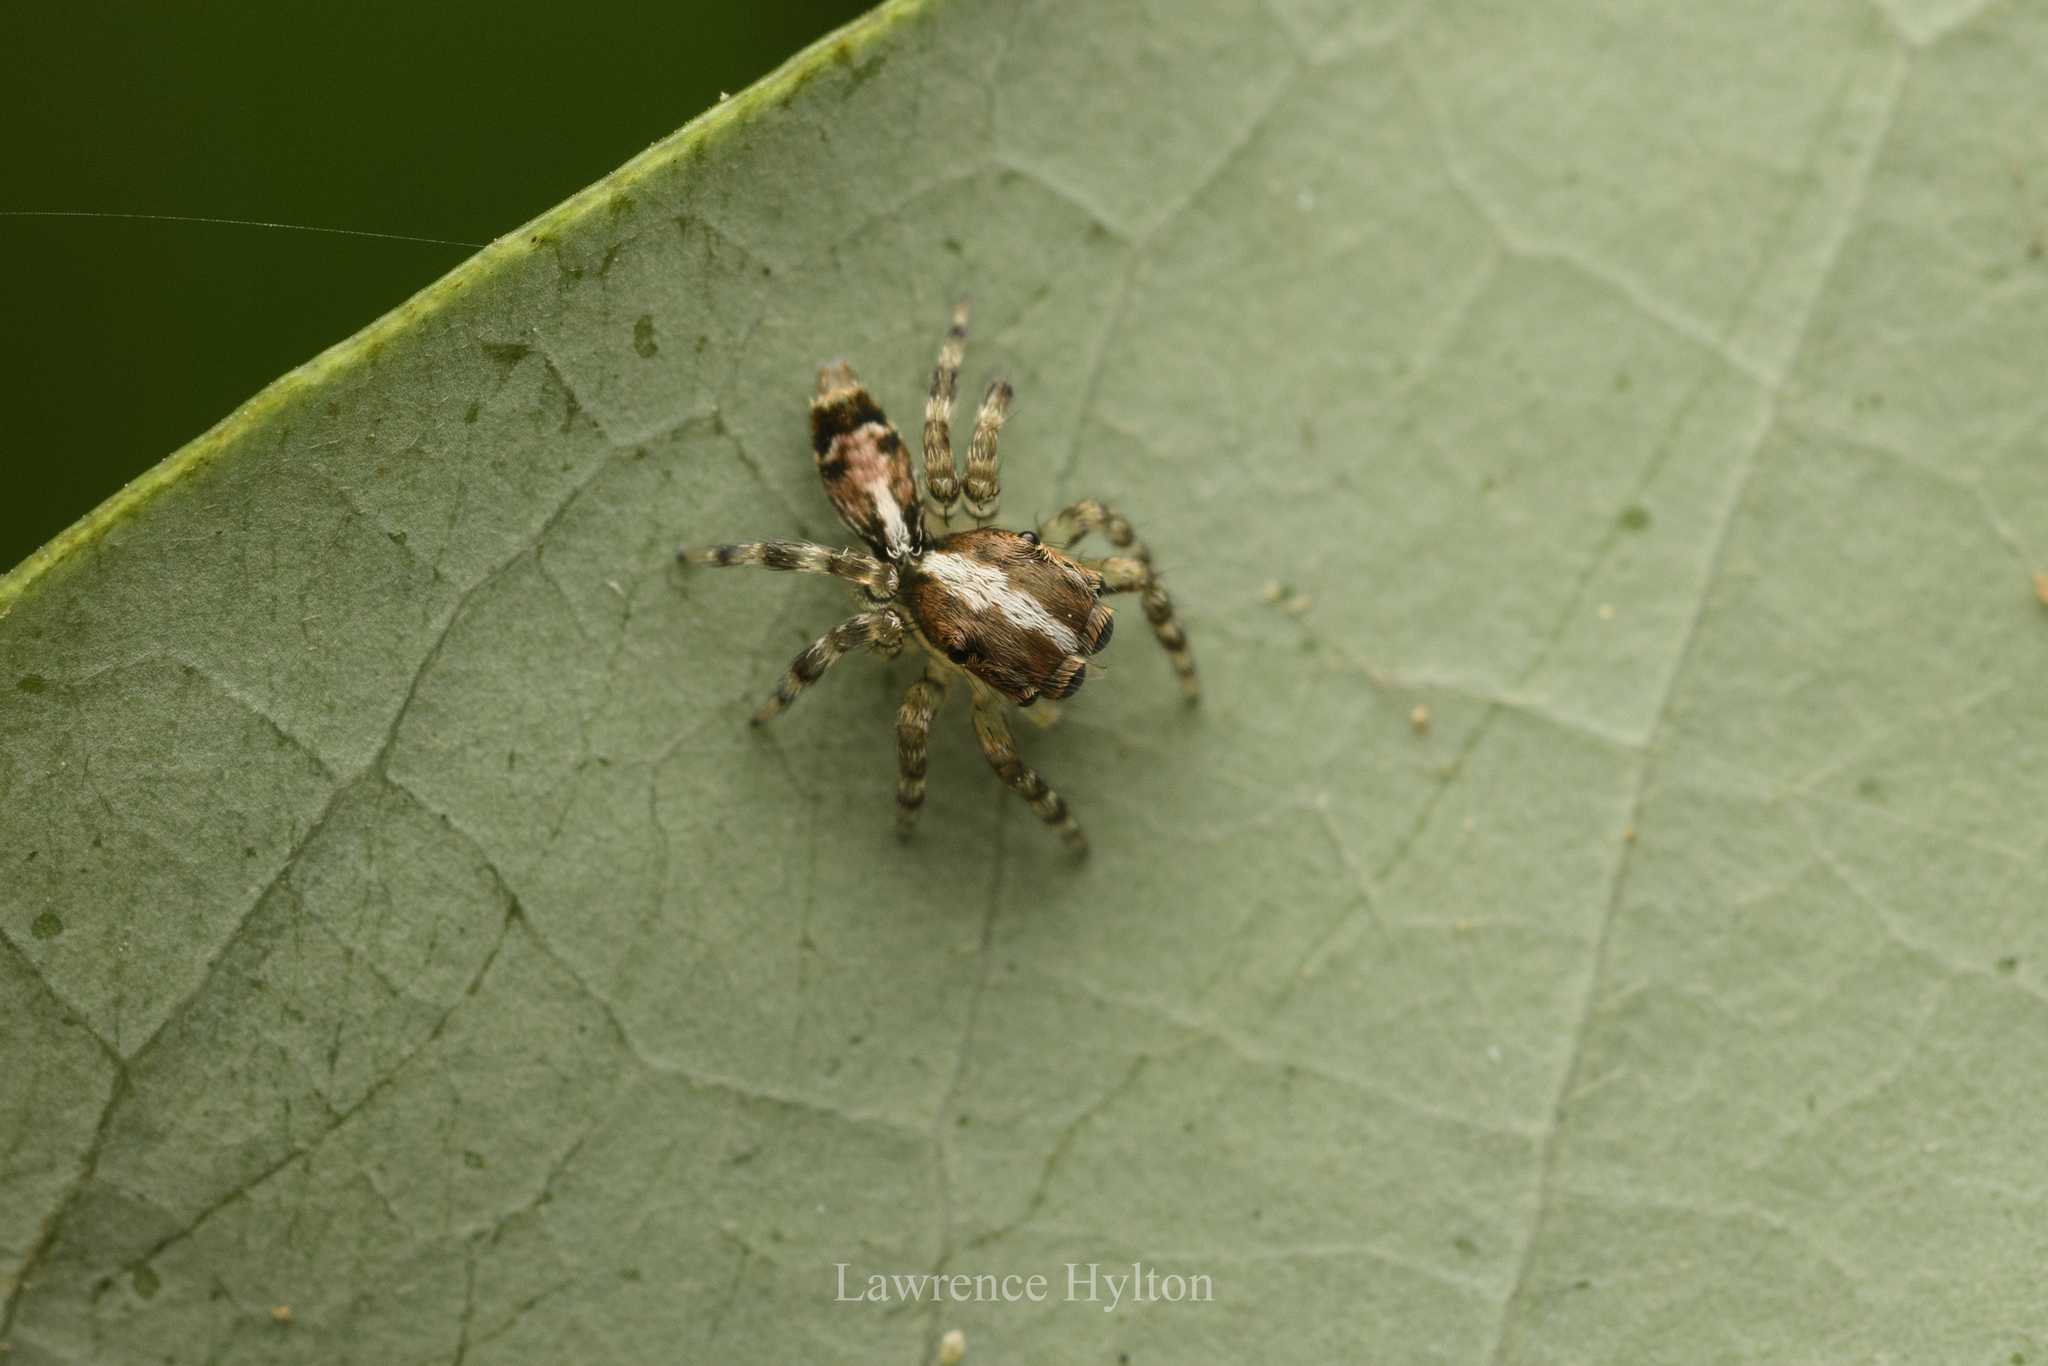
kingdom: Animalia
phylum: Arthropoda
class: Arachnida
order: Araneae
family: Salticidae
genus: Thyene
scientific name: Thyene orientalis
